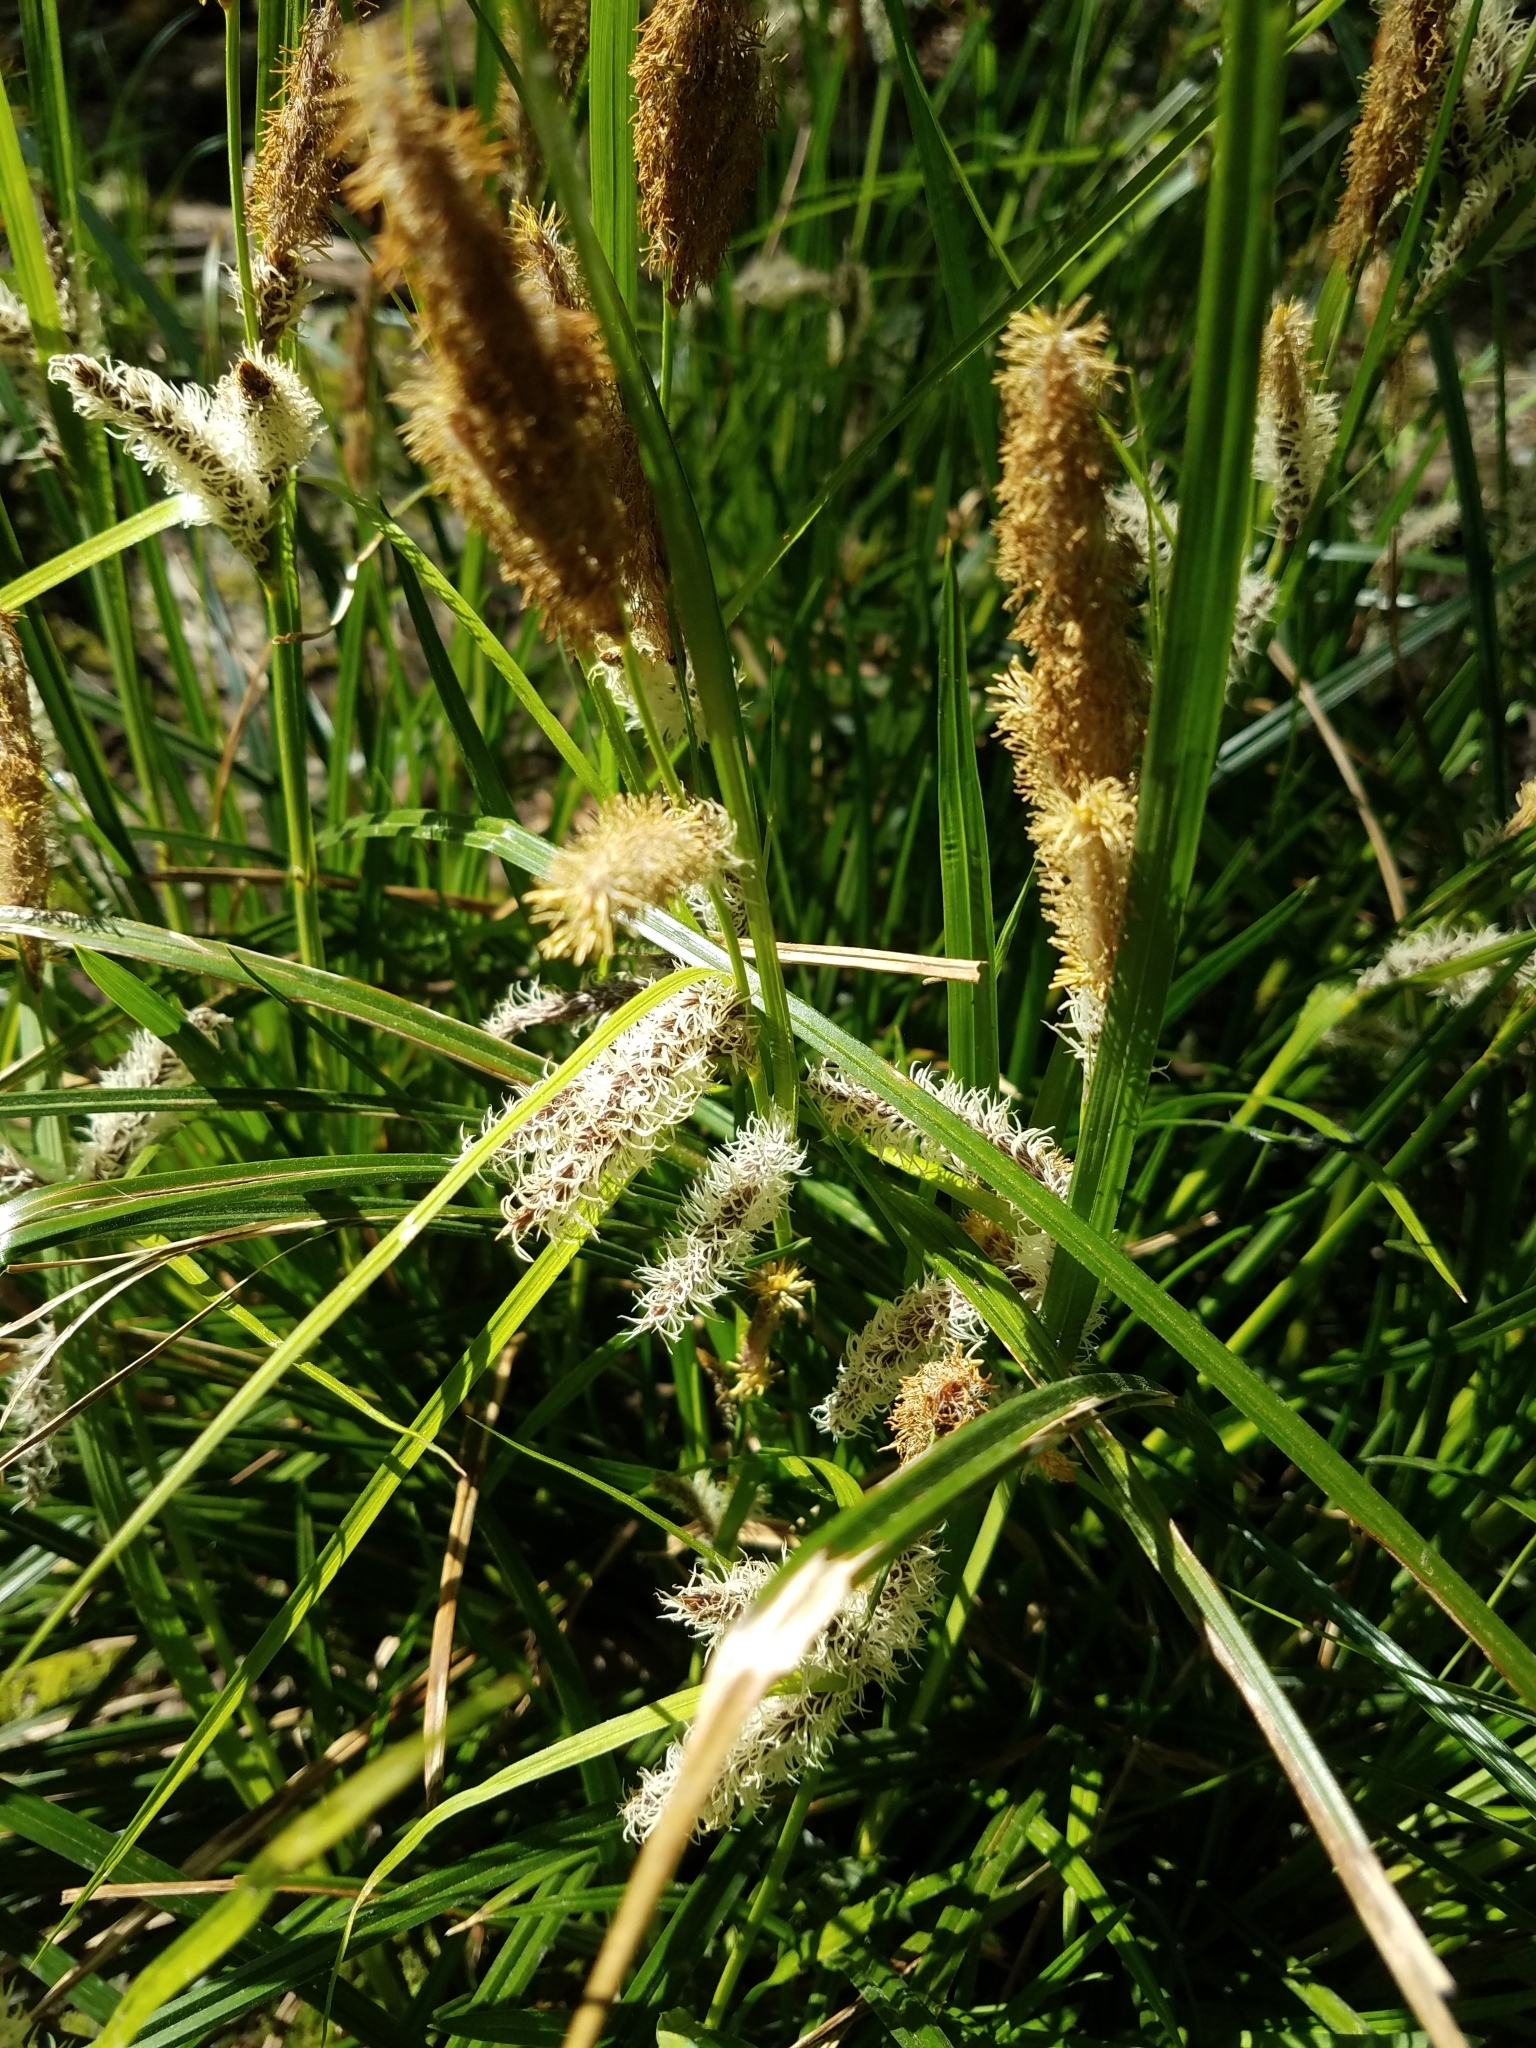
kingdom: Plantae
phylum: Tracheophyta
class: Liliopsida
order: Poales
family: Cyperaceae
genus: Carex
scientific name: Carex obnupta
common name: Slough sedge
